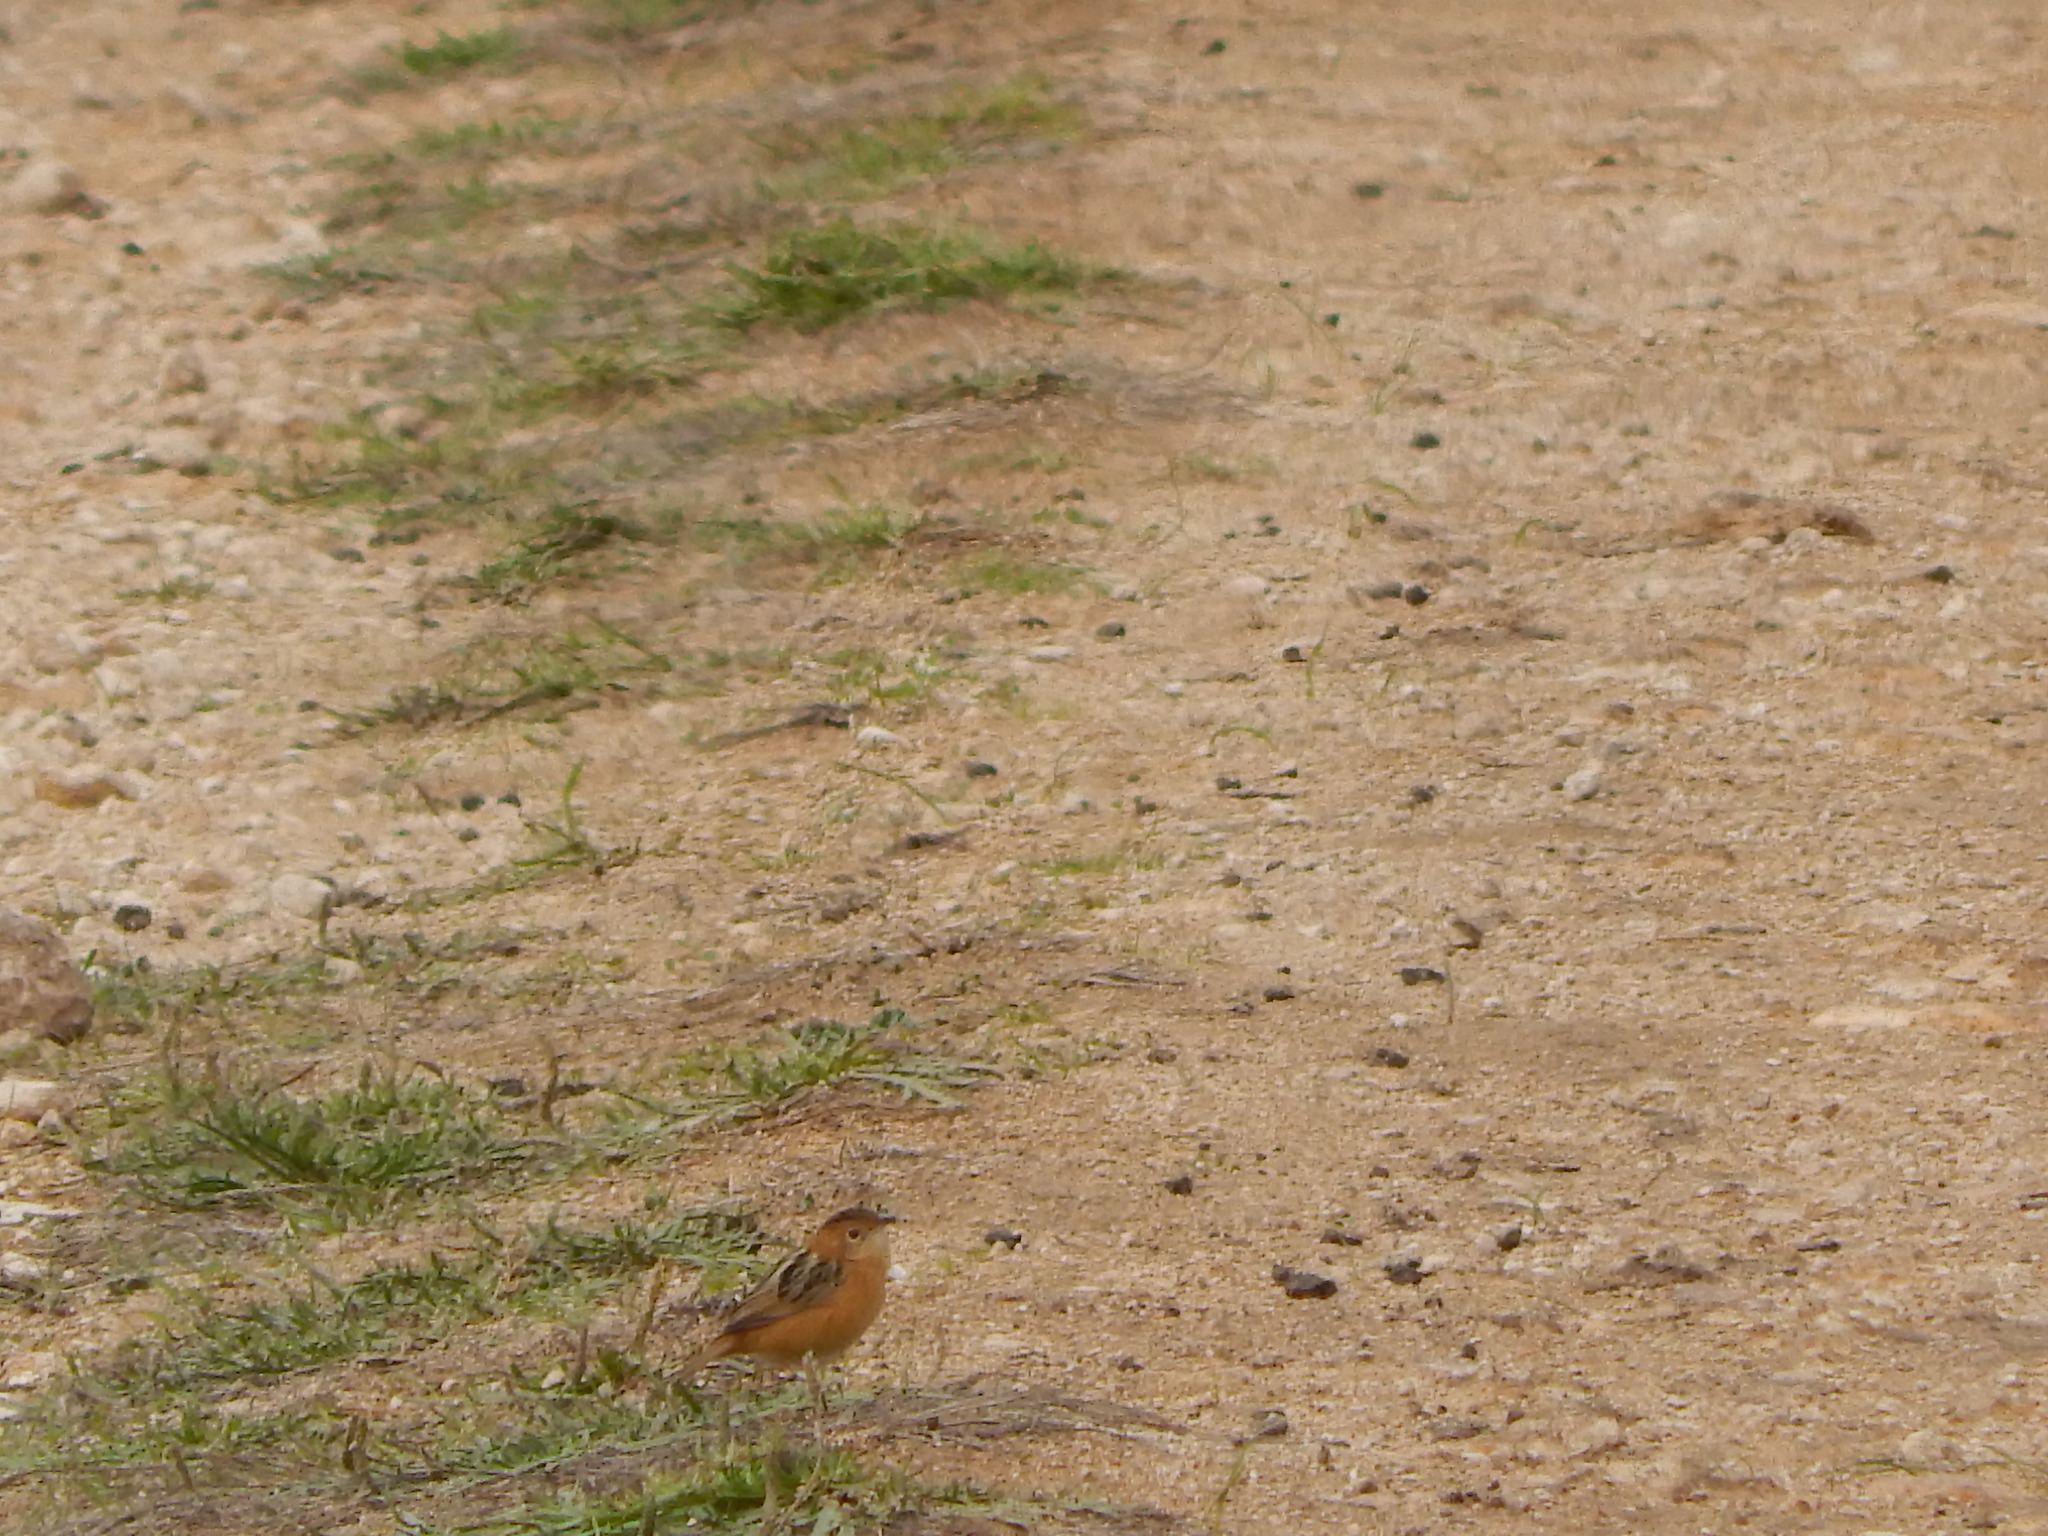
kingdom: Animalia
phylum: Chordata
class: Aves
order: Passeriformes
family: Cisticolidae
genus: Cisticola
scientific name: Cisticola exilis
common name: Golden-headed cisticola
